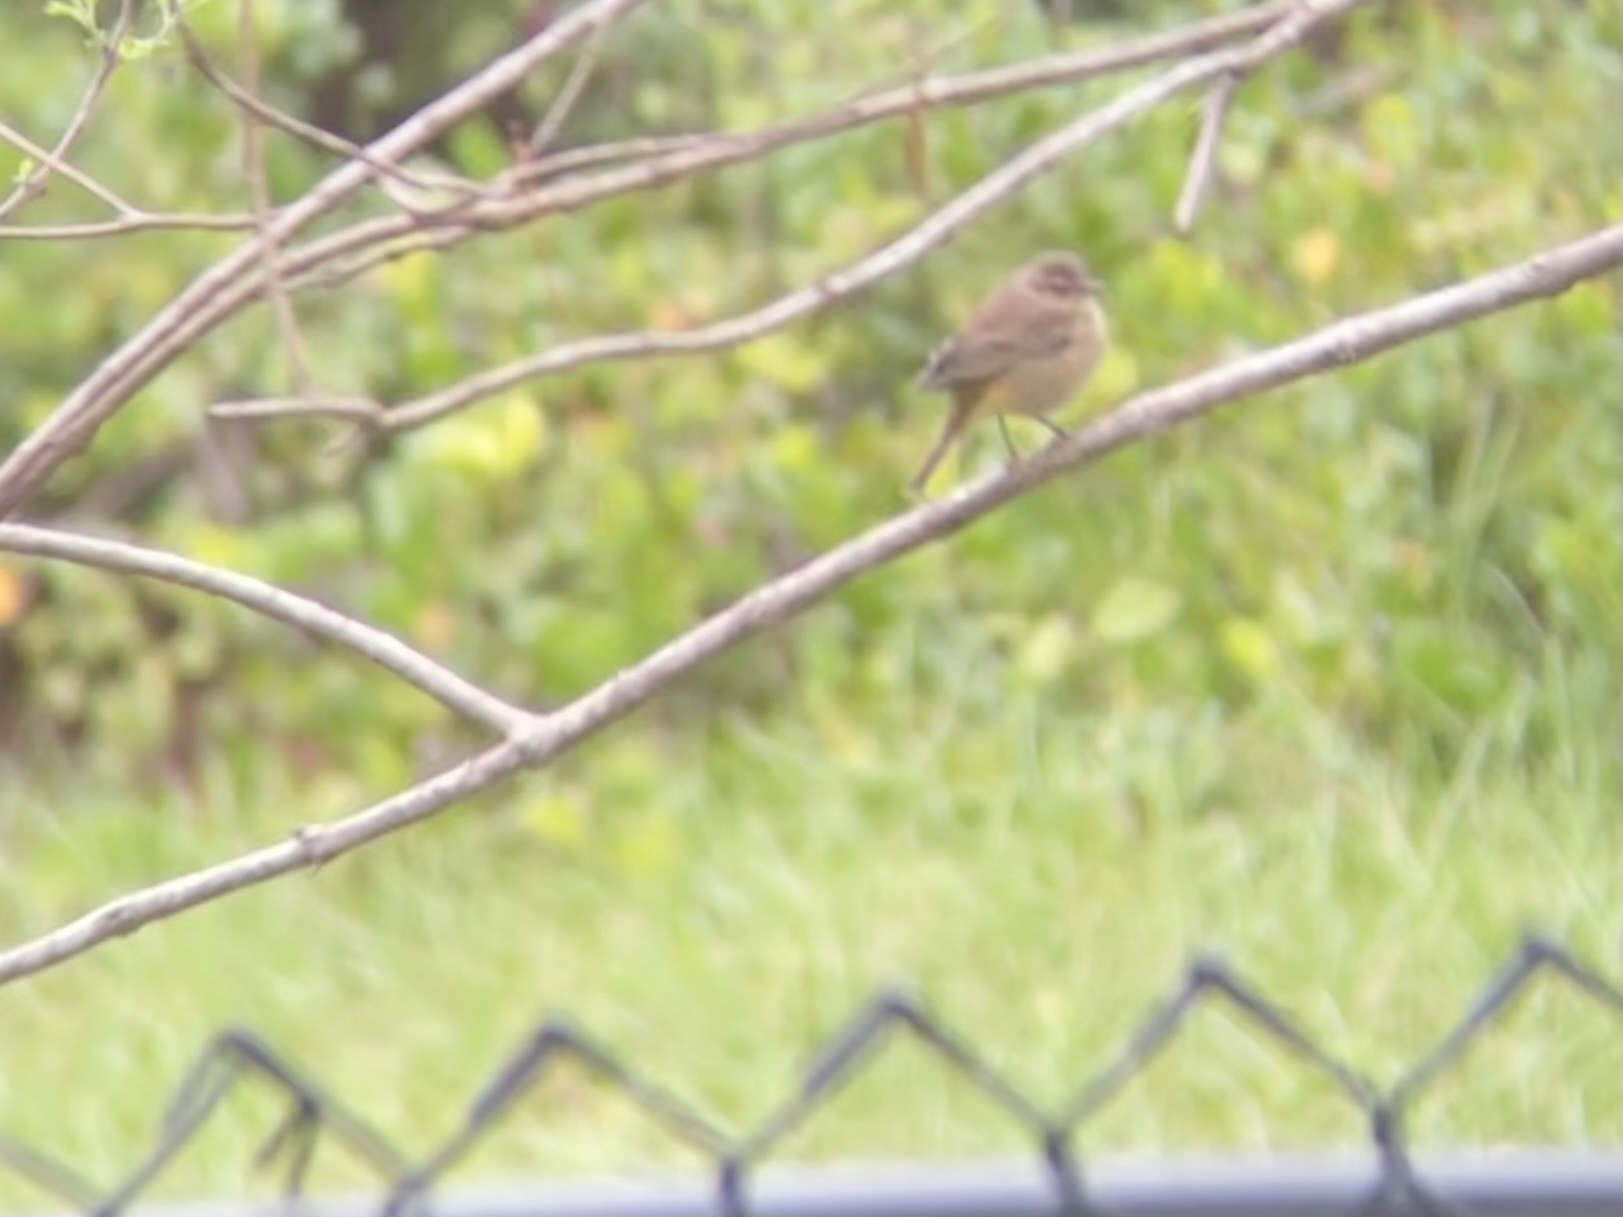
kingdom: Animalia
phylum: Chordata
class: Aves
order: Passeriformes
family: Parulidae
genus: Setophaga
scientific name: Setophaga palmarum
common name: Palm warbler
